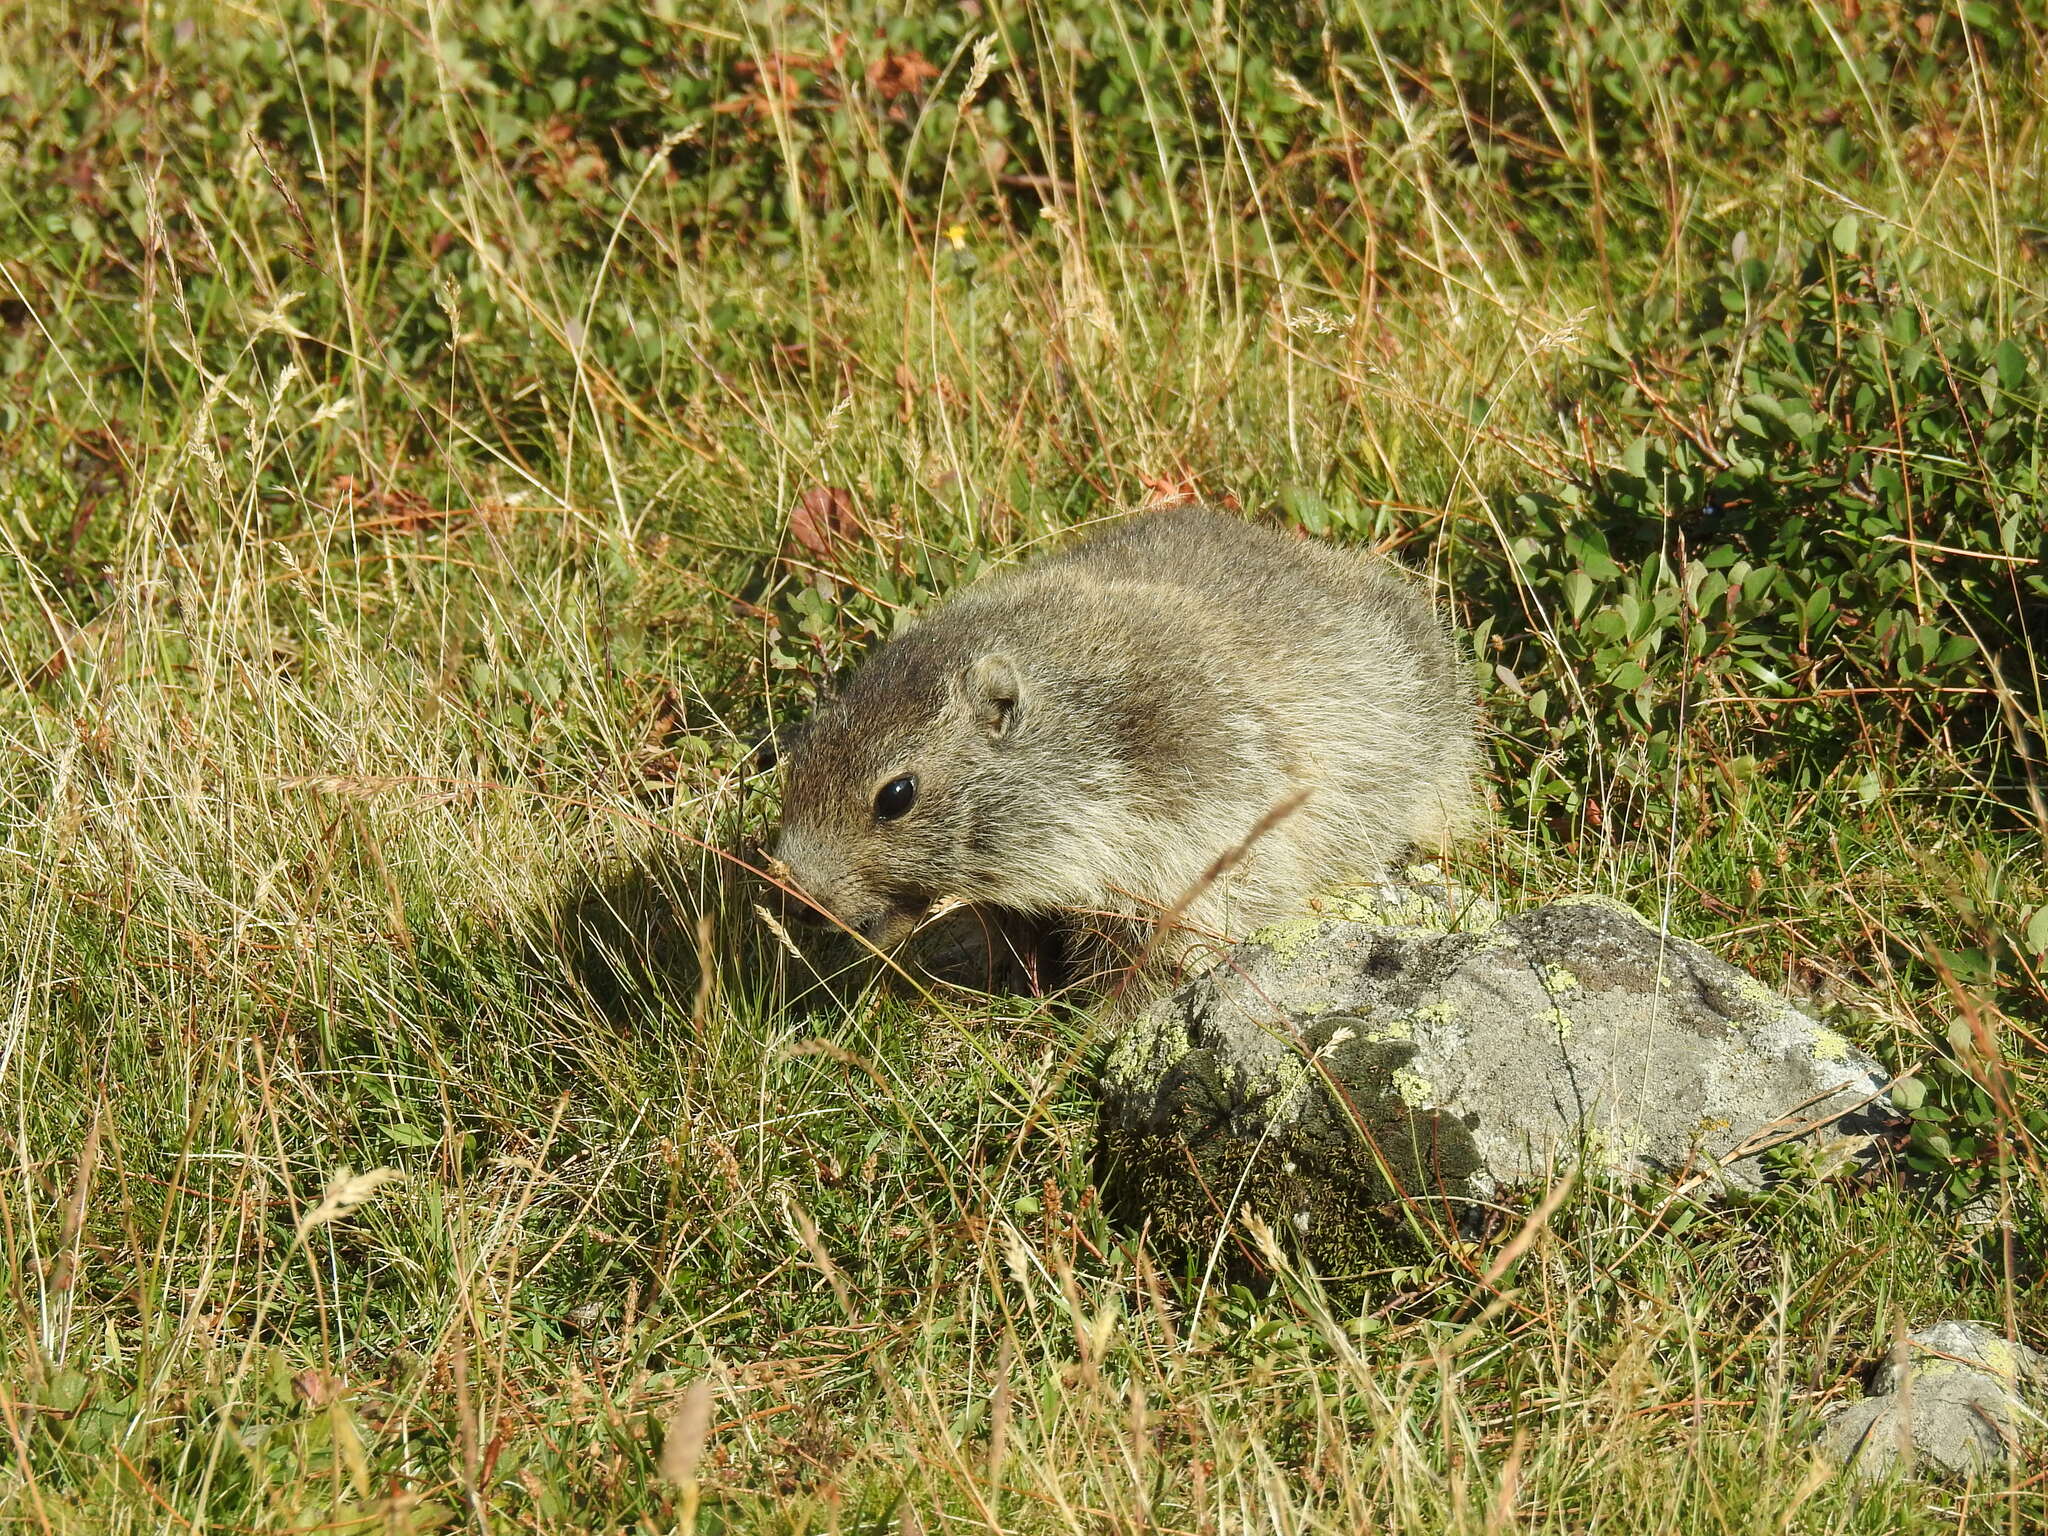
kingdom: Animalia
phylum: Chordata
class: Mammalia
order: Rodentia
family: Sciuridae
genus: Marmota
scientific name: Marmota marmota
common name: Alpine marmot
